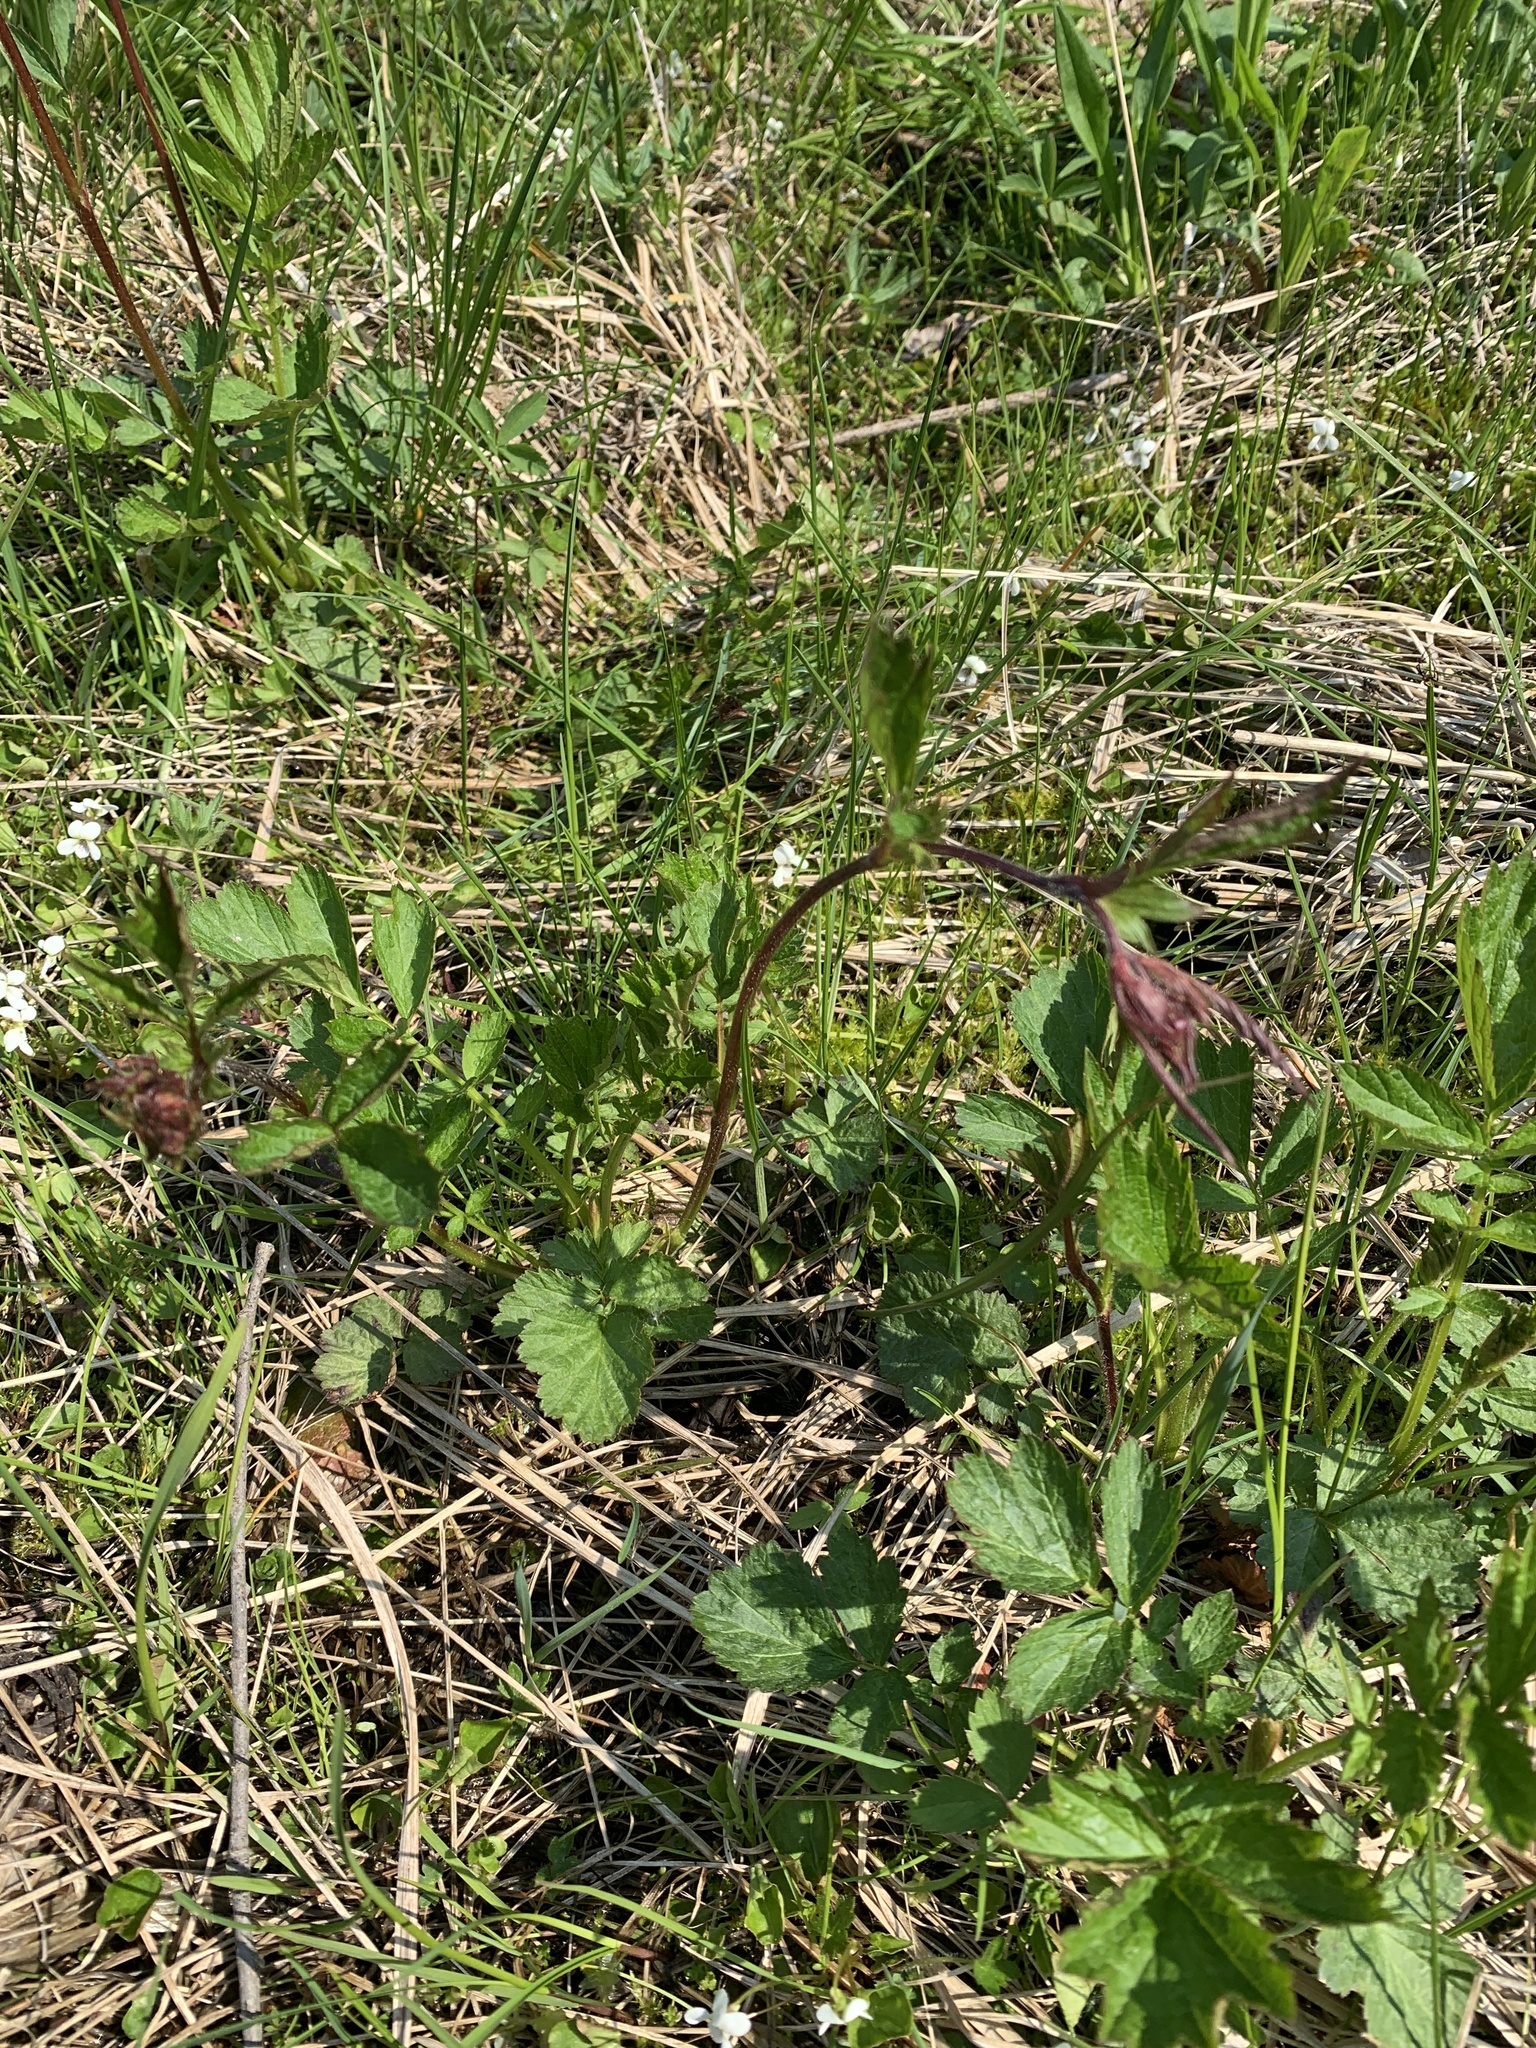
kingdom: Plantae
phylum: Tracheophyta
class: Magnoliopsida
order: Rosales
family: Rosaceae
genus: Geum
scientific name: Geum rivale
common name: Water avens
